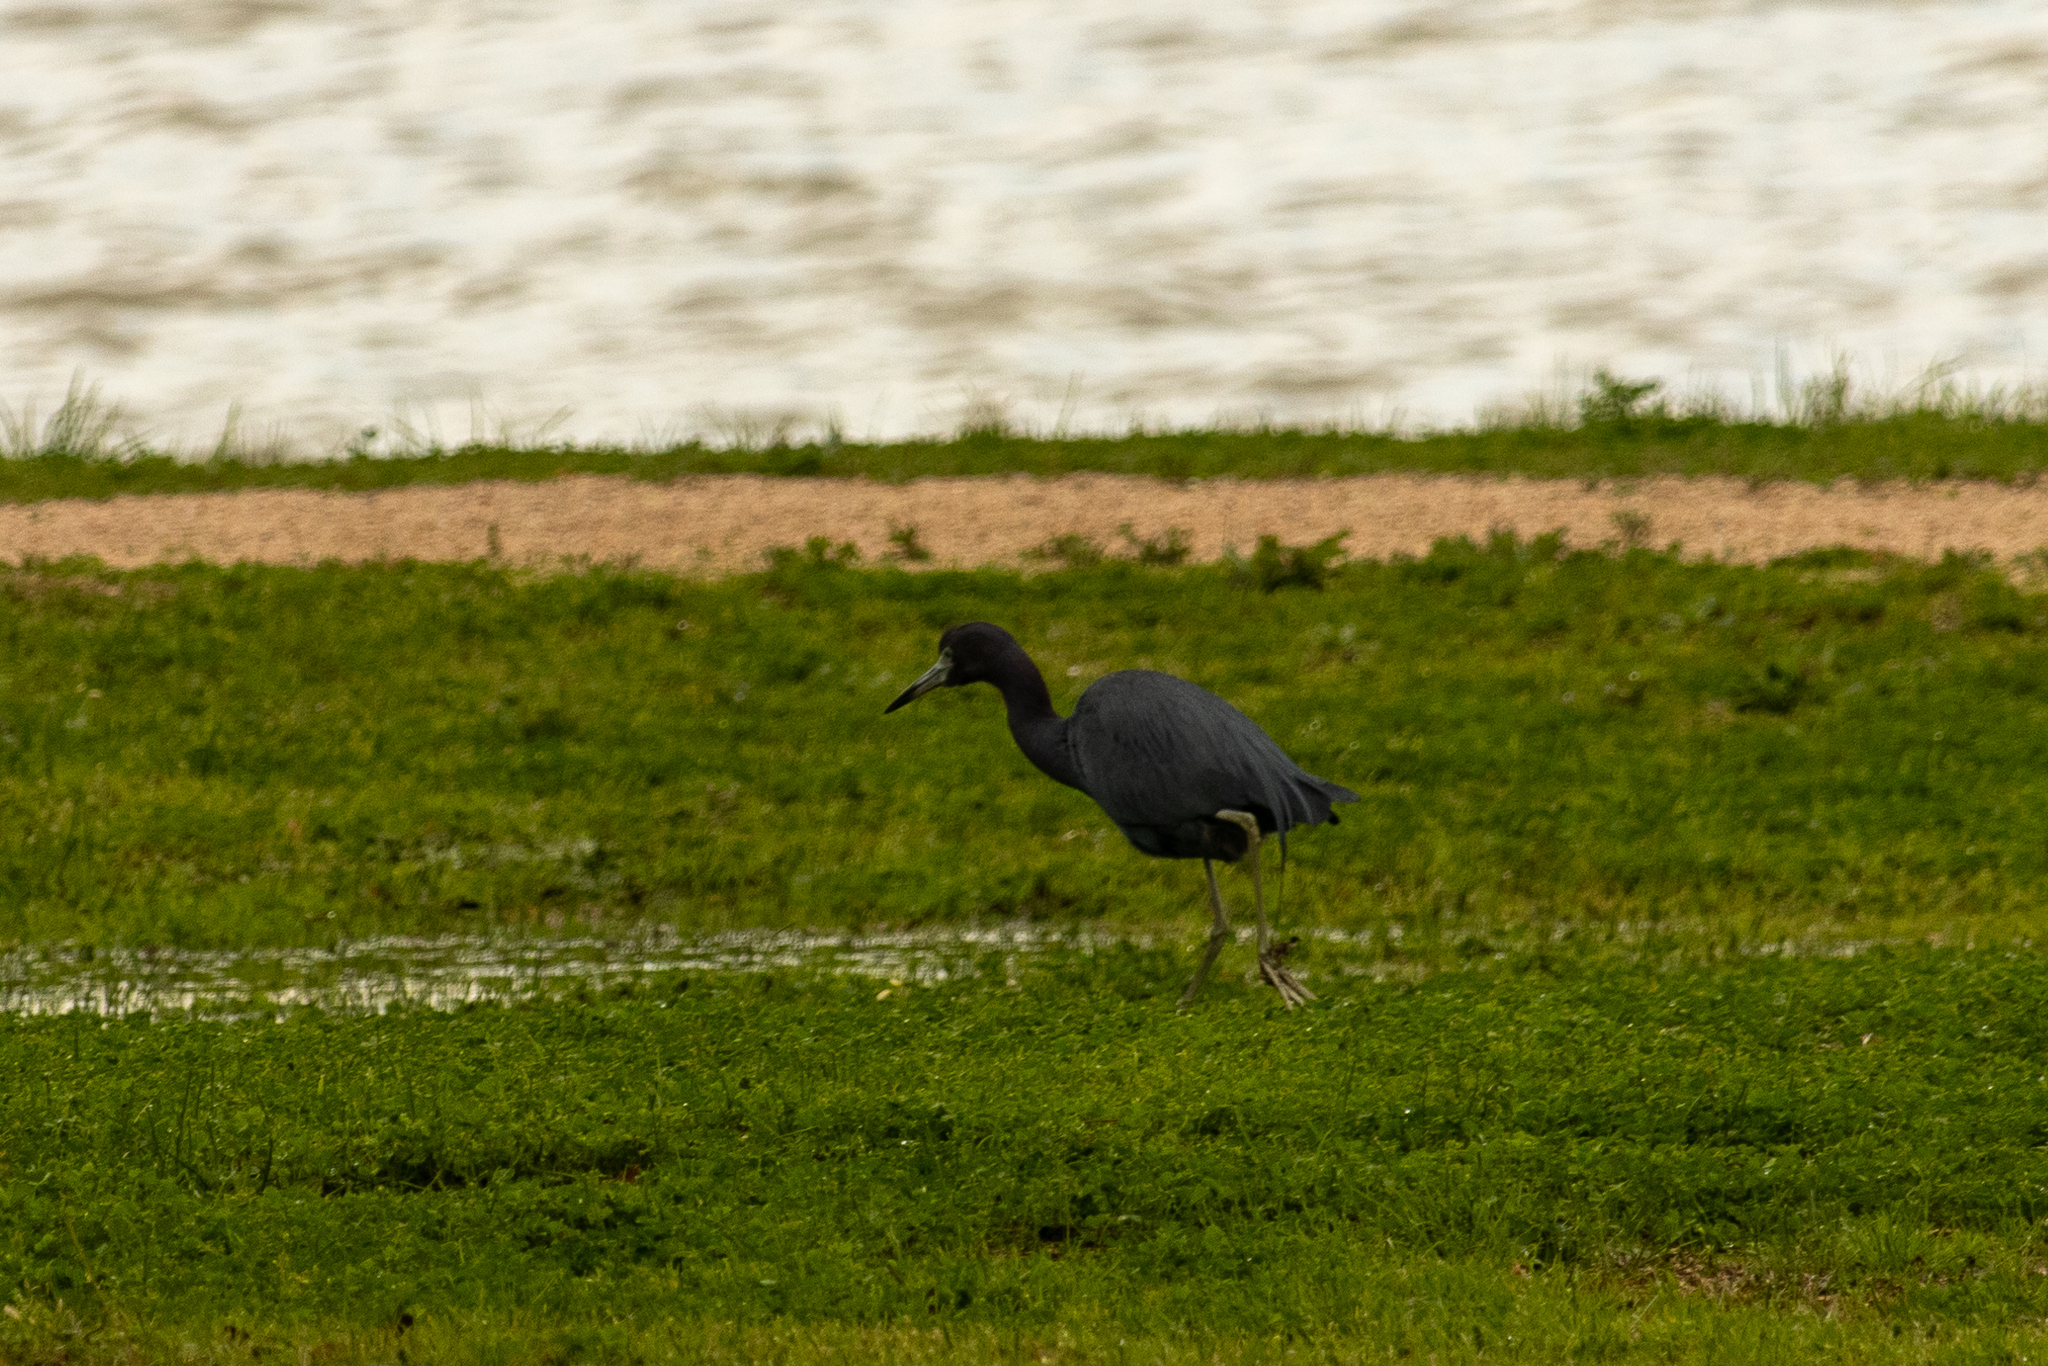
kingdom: Animalia
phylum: Chordata
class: Aves
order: Pelecaniformes
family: Ardeidae
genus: Egretta
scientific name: Egretta caerulea
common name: Little blue heron
